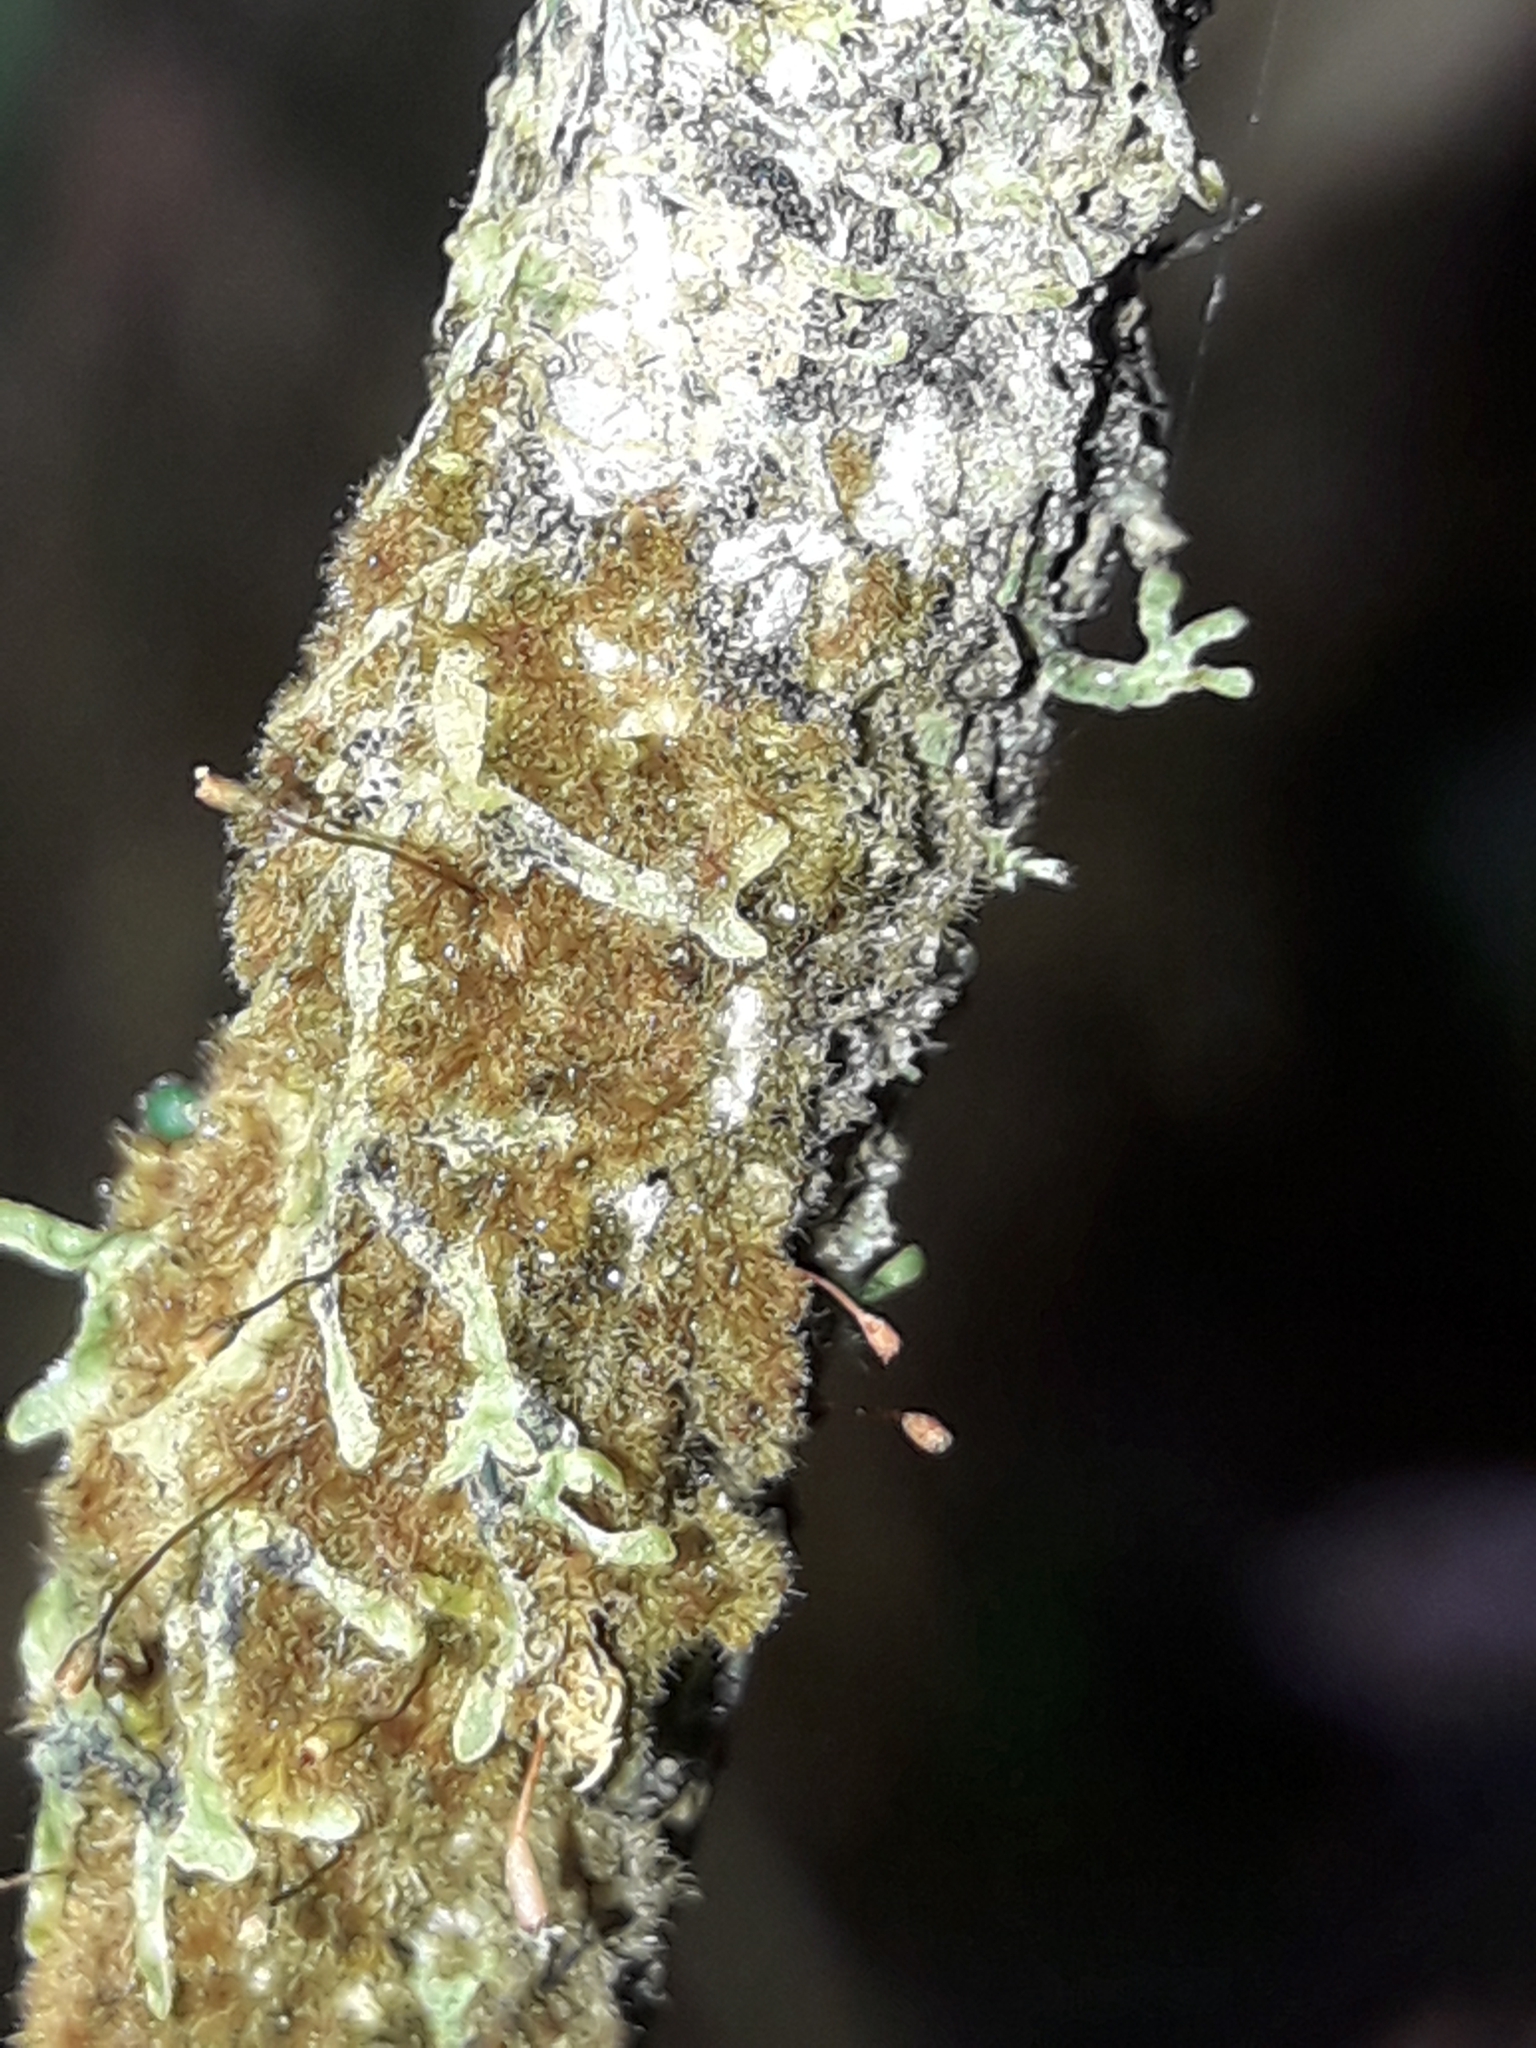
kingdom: Plantae
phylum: Bryophyta
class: Bryopsida
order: Hookeriales
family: Daltoniaceae
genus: Ephemeropsis
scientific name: Ephemeropsis trentepohlioides
